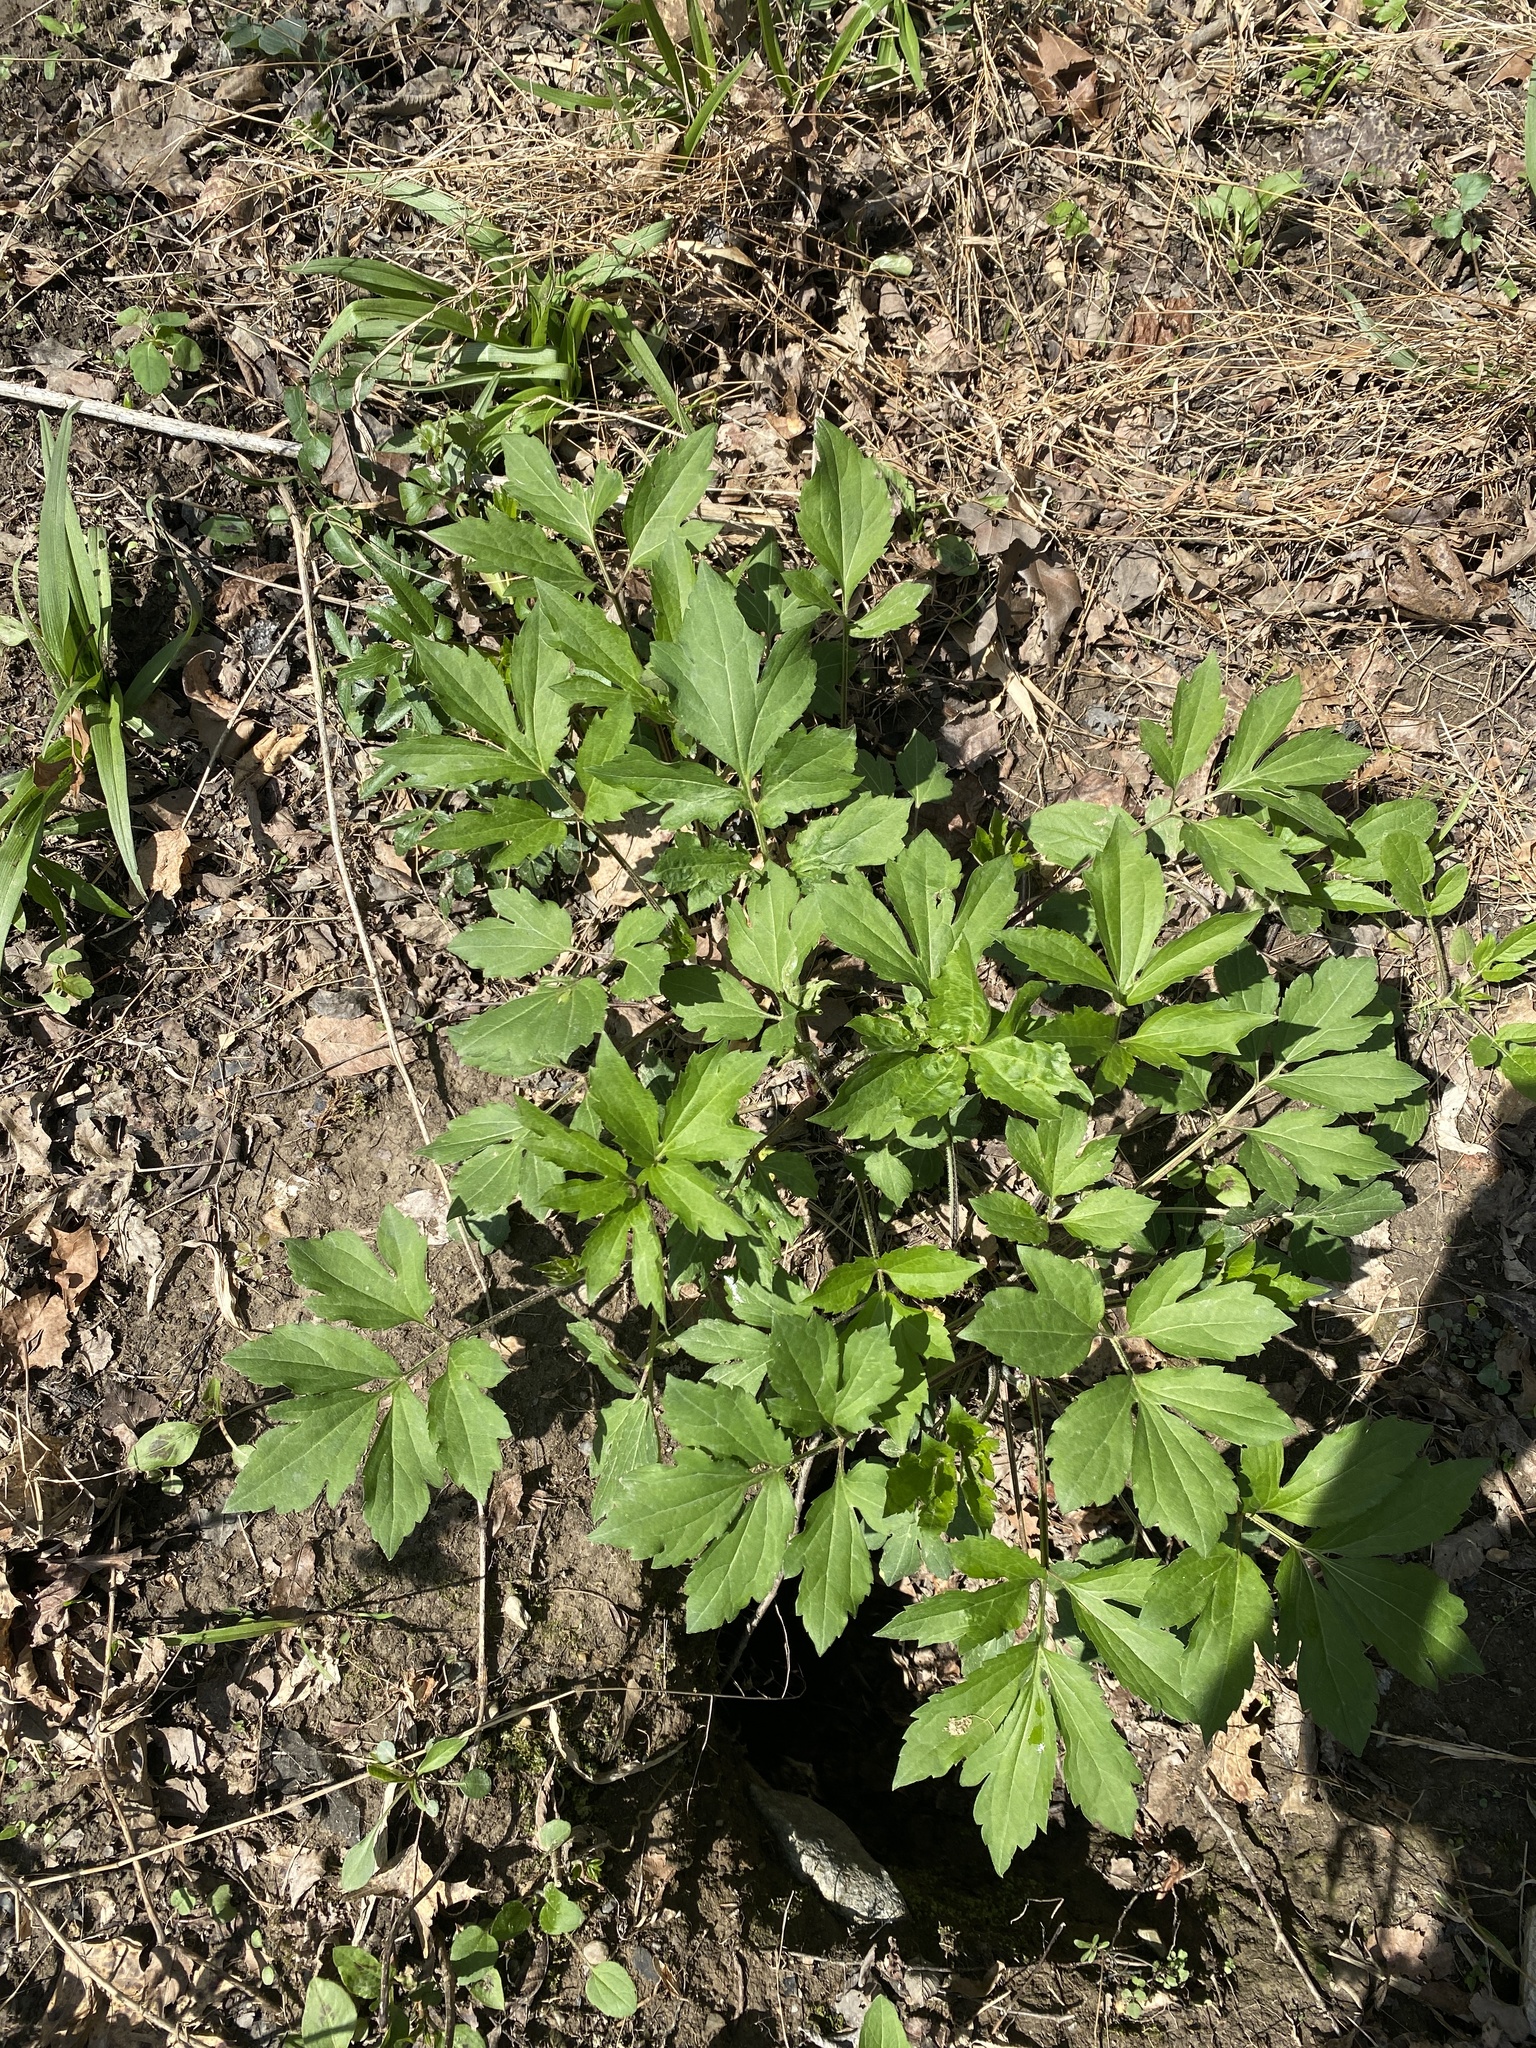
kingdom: Plantae
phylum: Tracheophyta
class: Magnoliopsida
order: Asterales
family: Asteraceae
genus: Rudbeckia
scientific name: Rudbeckia laciniata
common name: Coneflower
